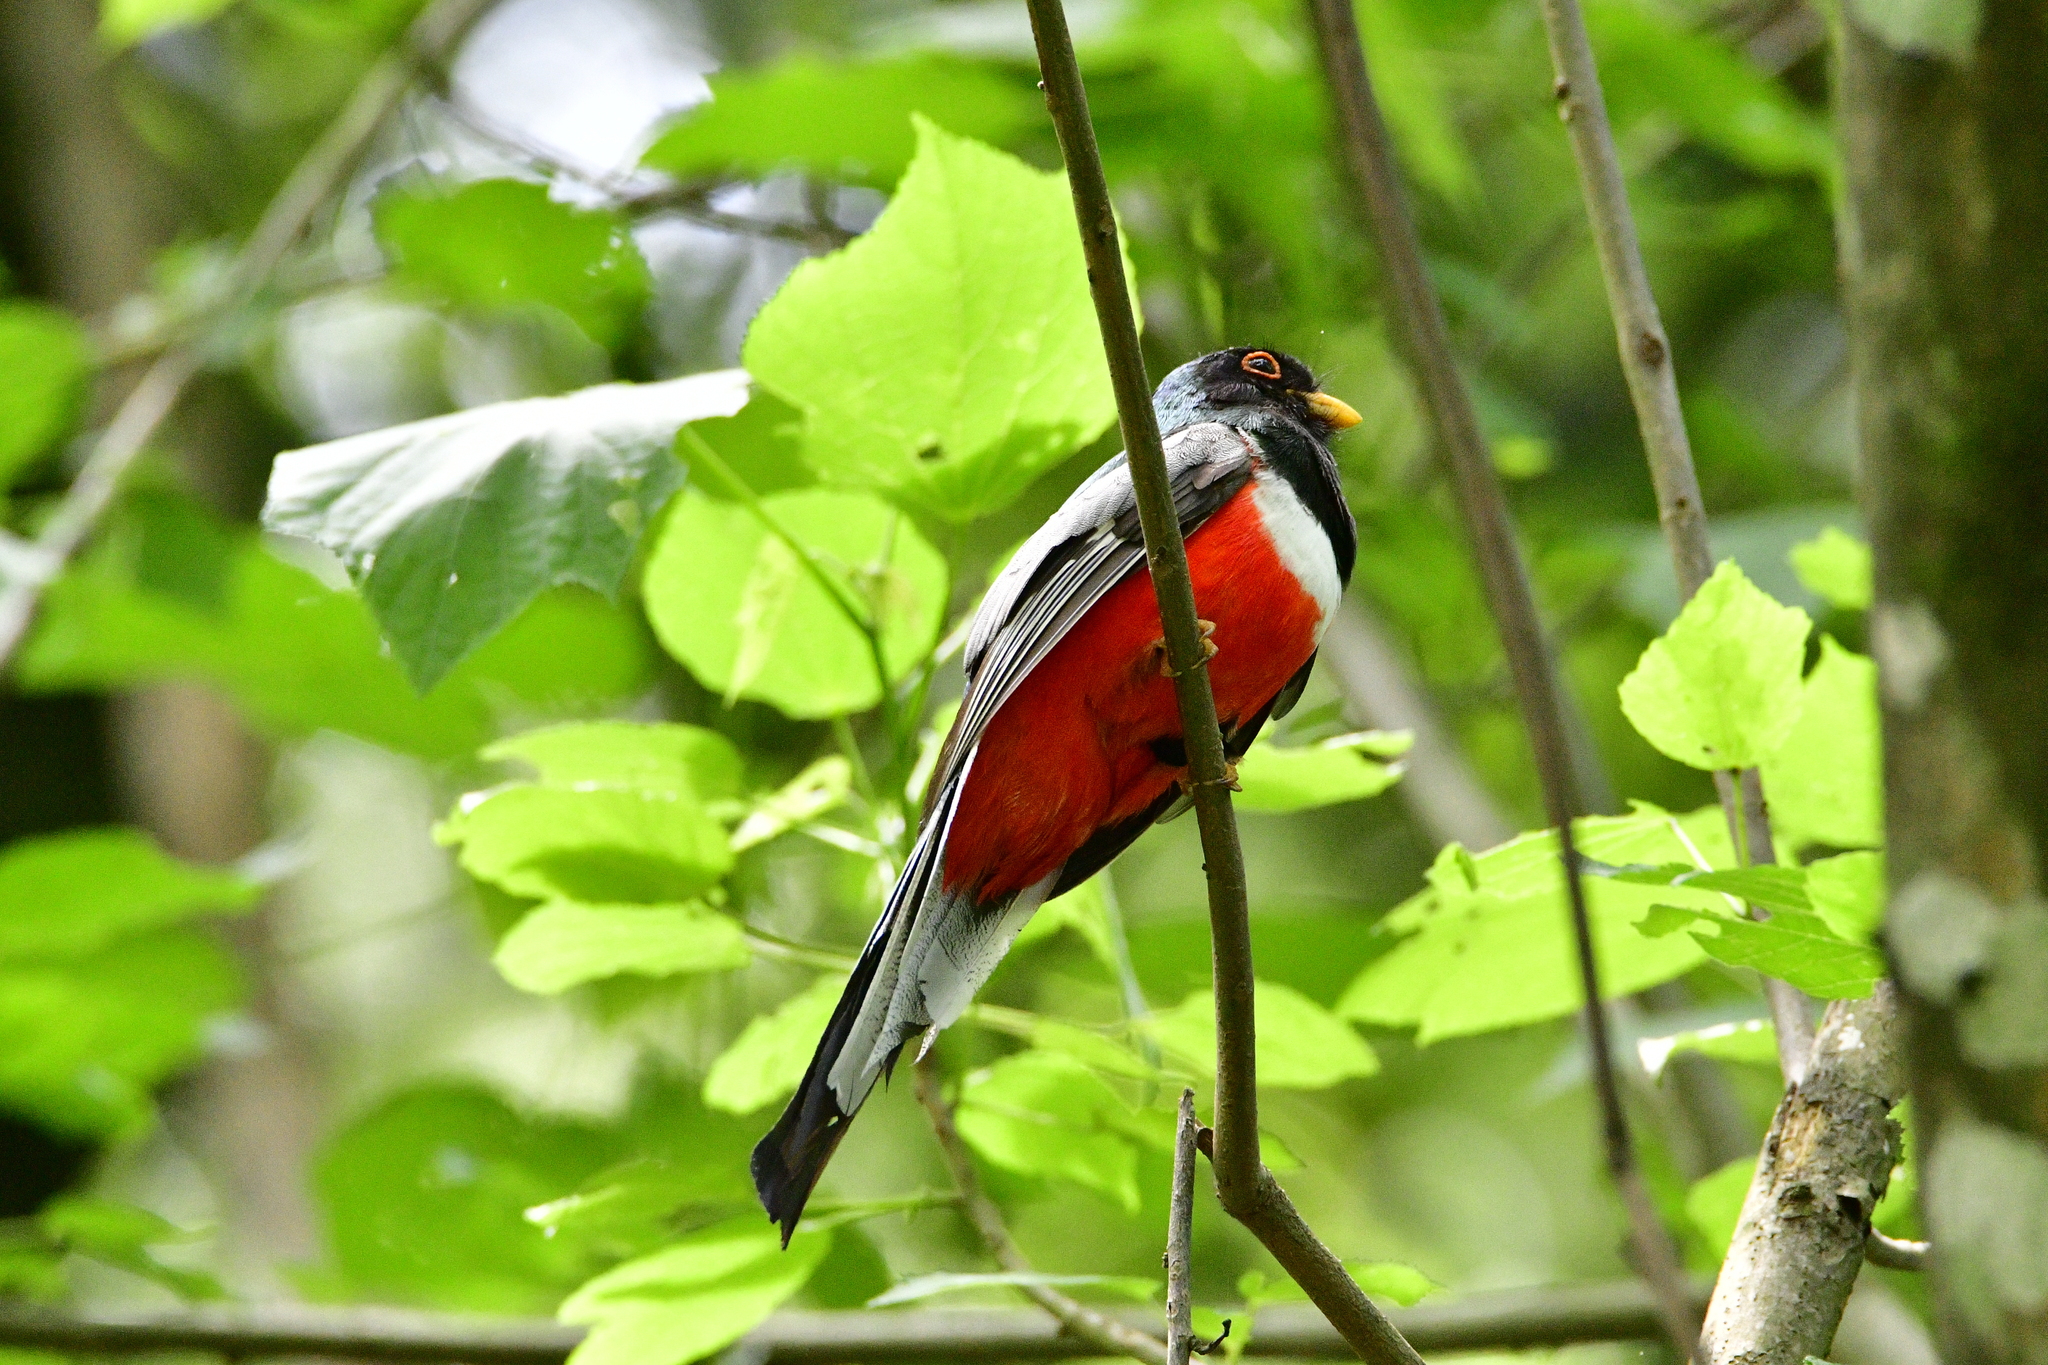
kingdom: Animalia
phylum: Chordata
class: Aves
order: Trogoniformes
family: Trogonidae
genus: Trogon
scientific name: Trogon elegans
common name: Elegant trogon
